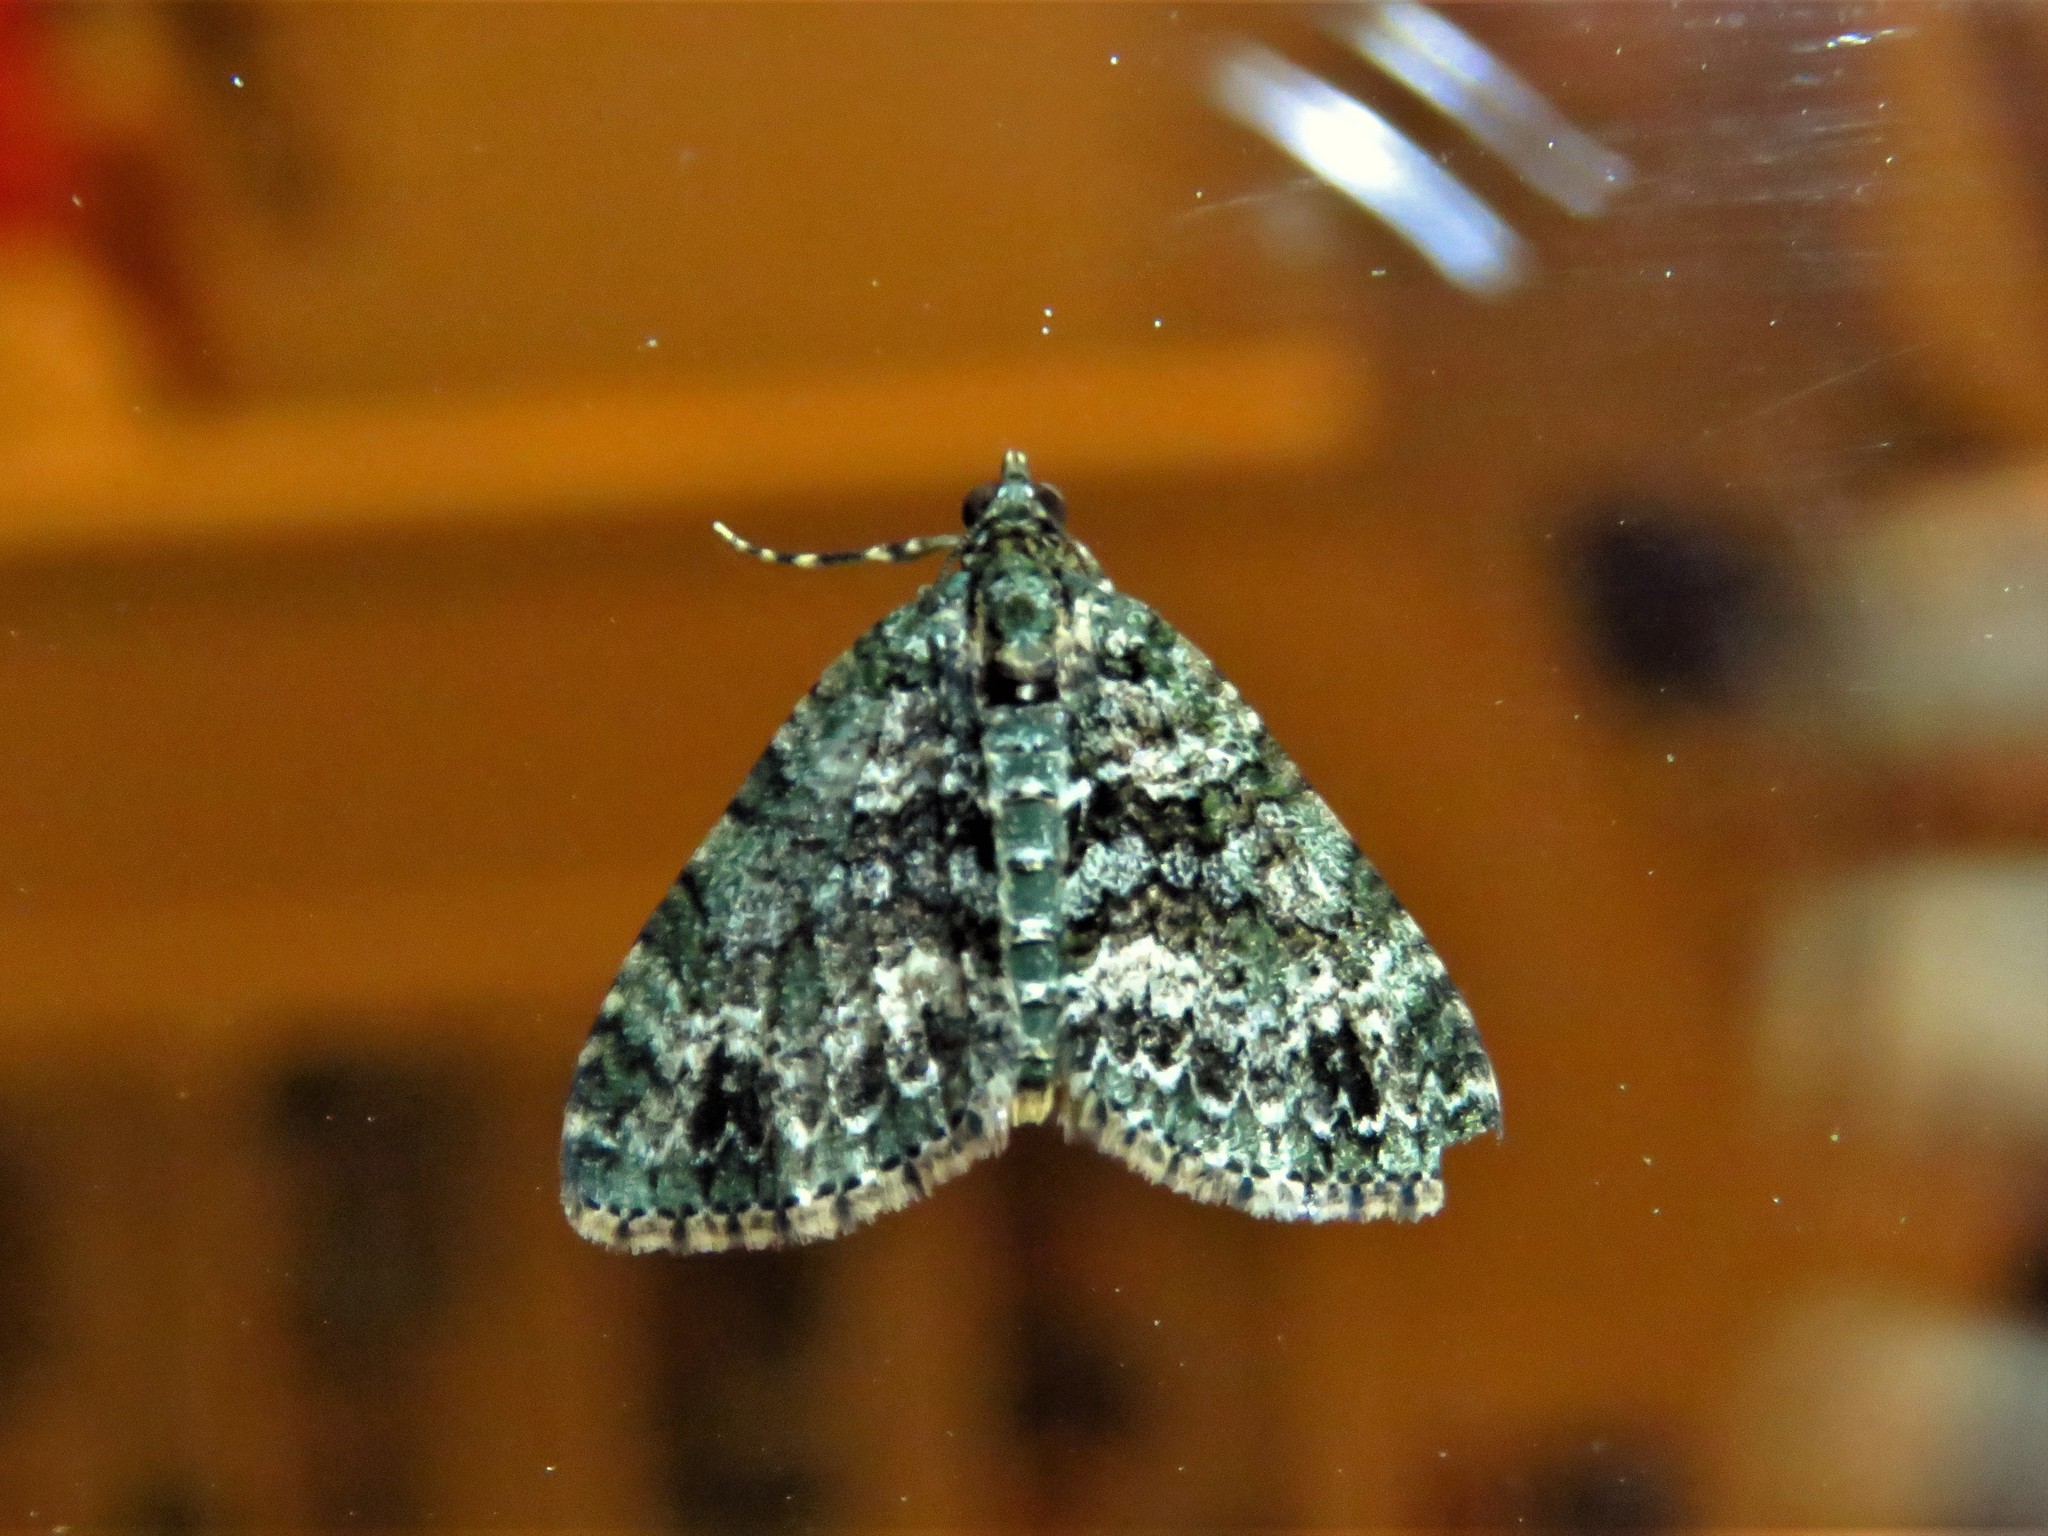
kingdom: Animalia
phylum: Arthropoda
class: Insecta
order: Lepidoptera
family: Geometridae
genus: Hammaptera
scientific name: Hammaptera parinotata
